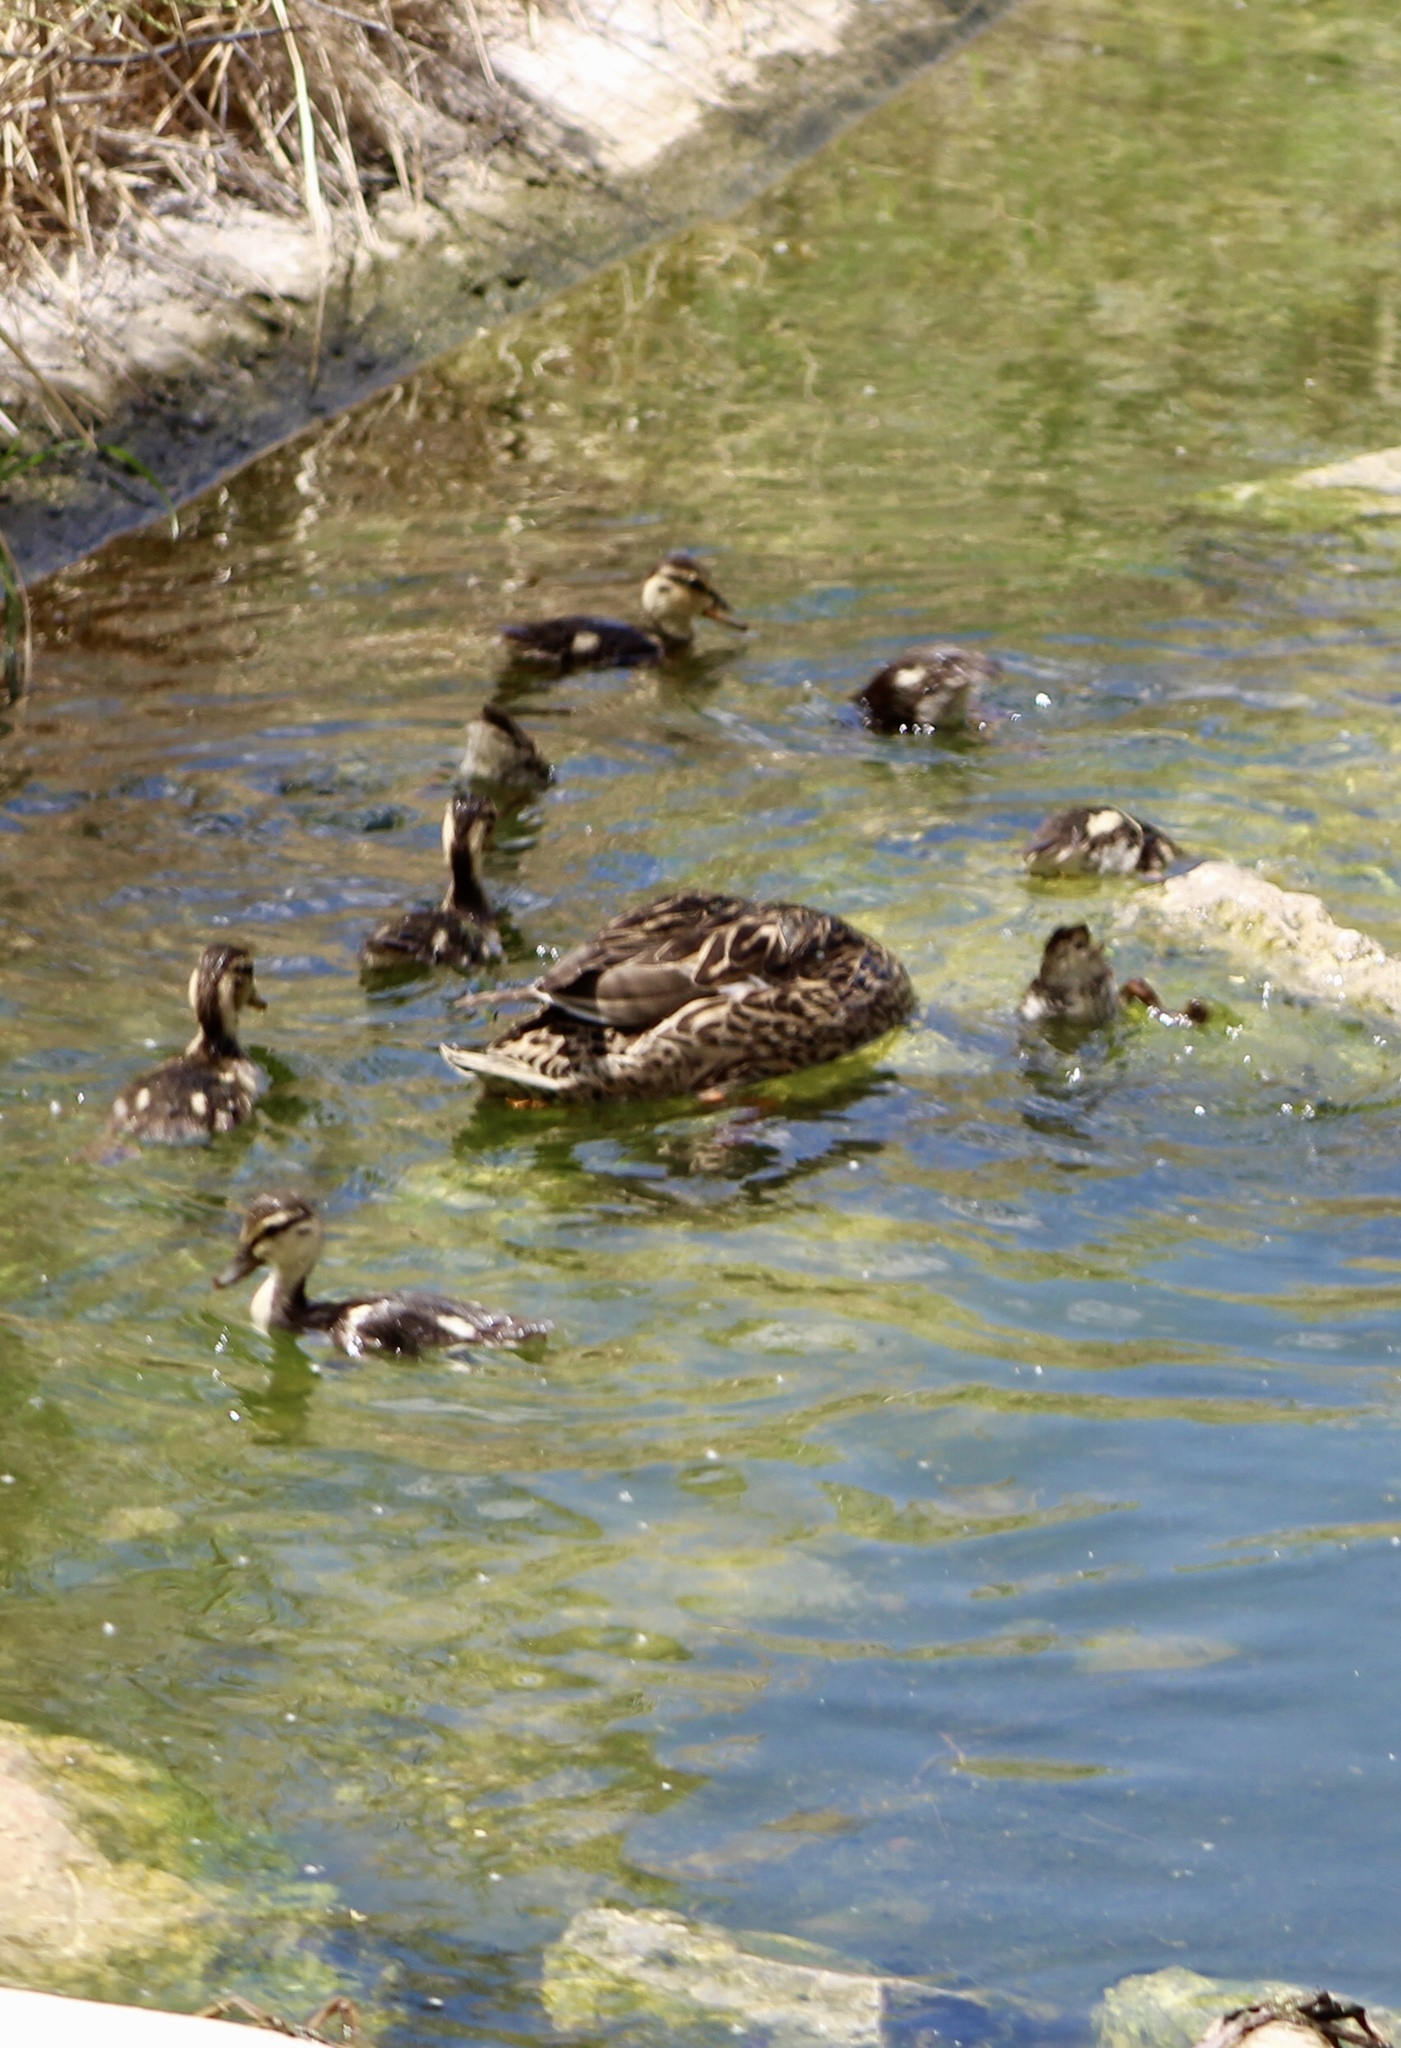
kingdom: Animalia
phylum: Chordata
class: Aves
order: Anseriformes
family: Anatidae
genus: Anas
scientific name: Anas platyrhynchos
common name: Mallard
